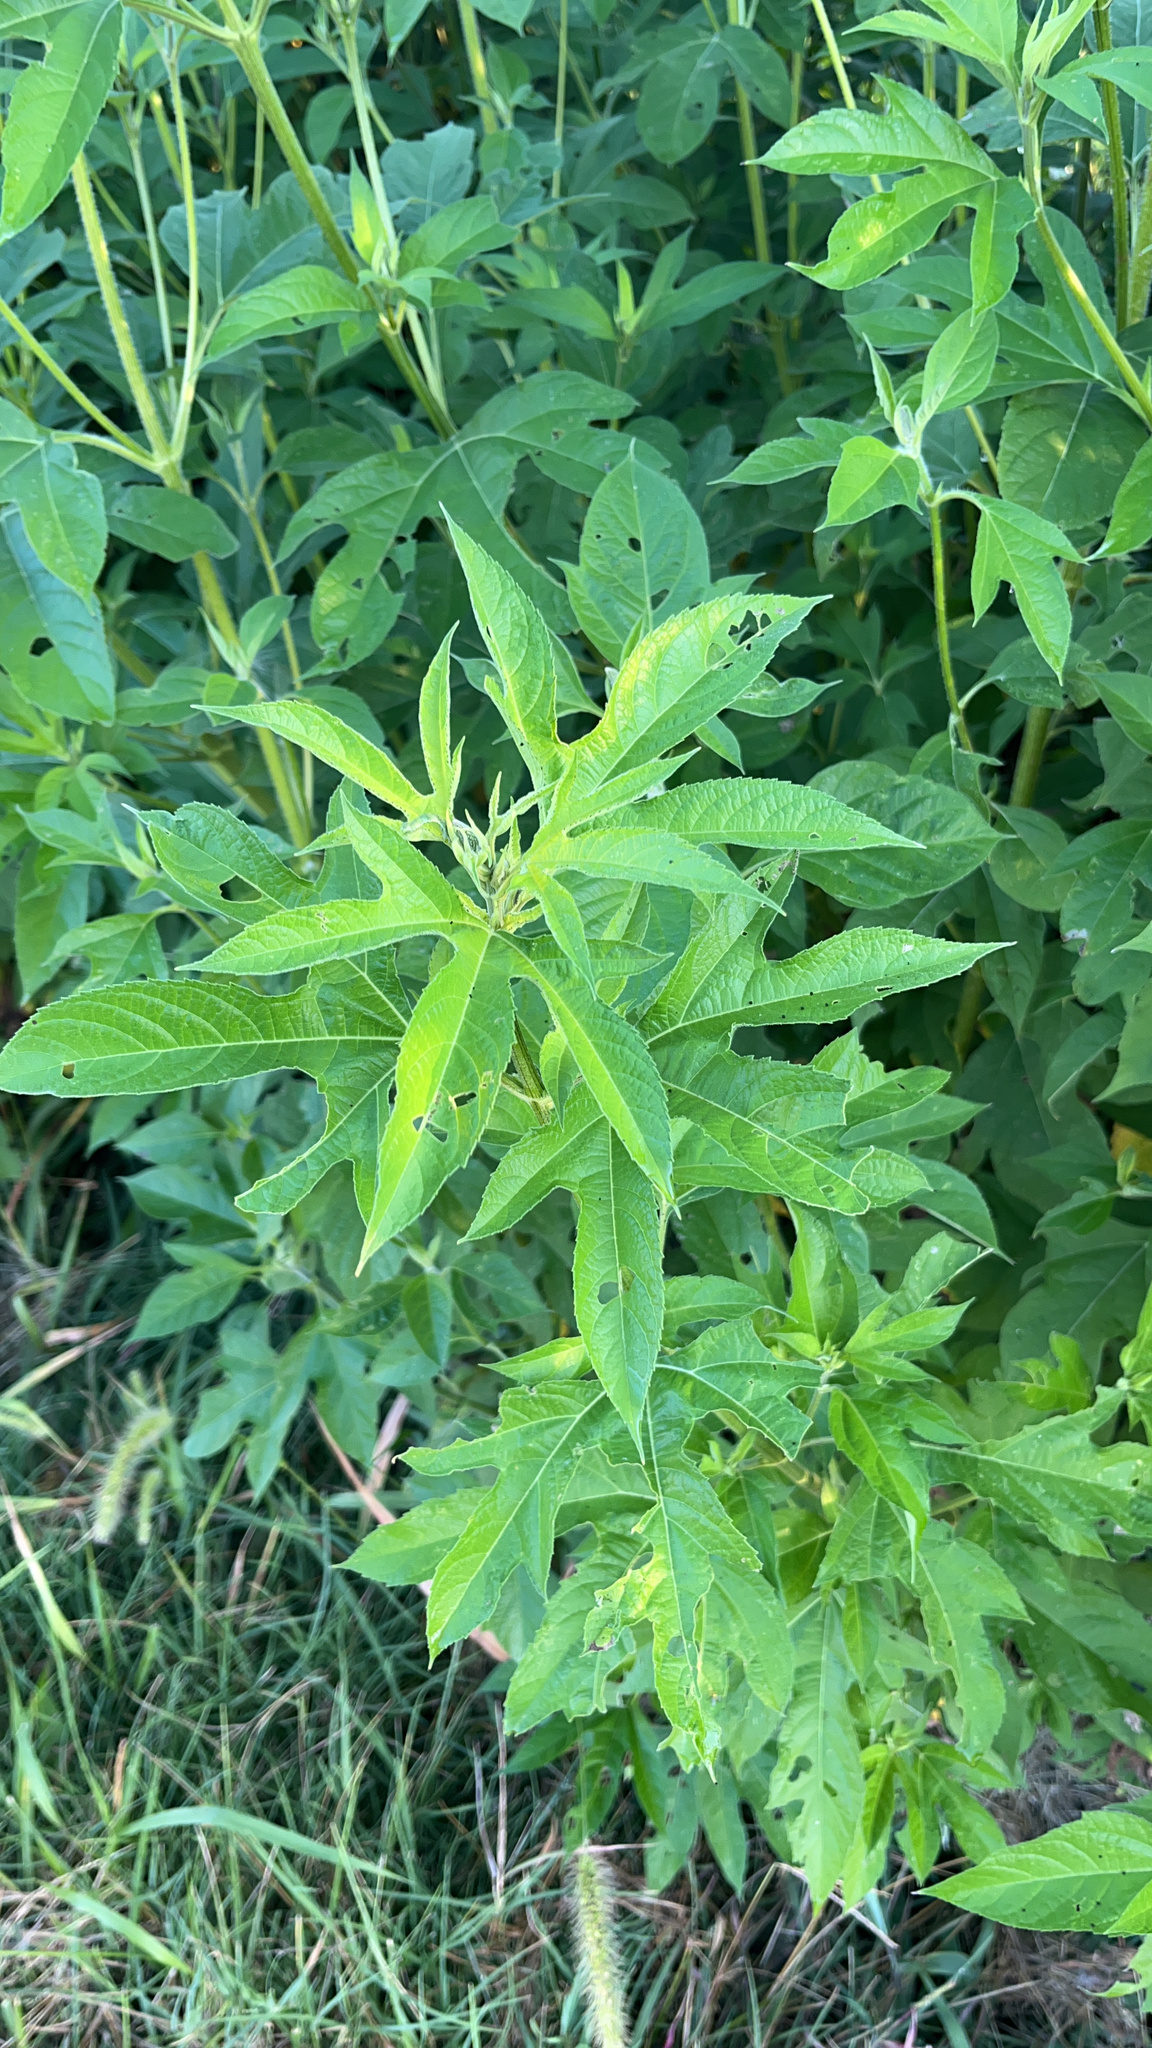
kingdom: Plantae
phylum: Tracheophyta
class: Magnoliopsida
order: Asterales
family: Asteraceae
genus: Ambrosia
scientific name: Ambrosia trifida
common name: Giant ragweed
